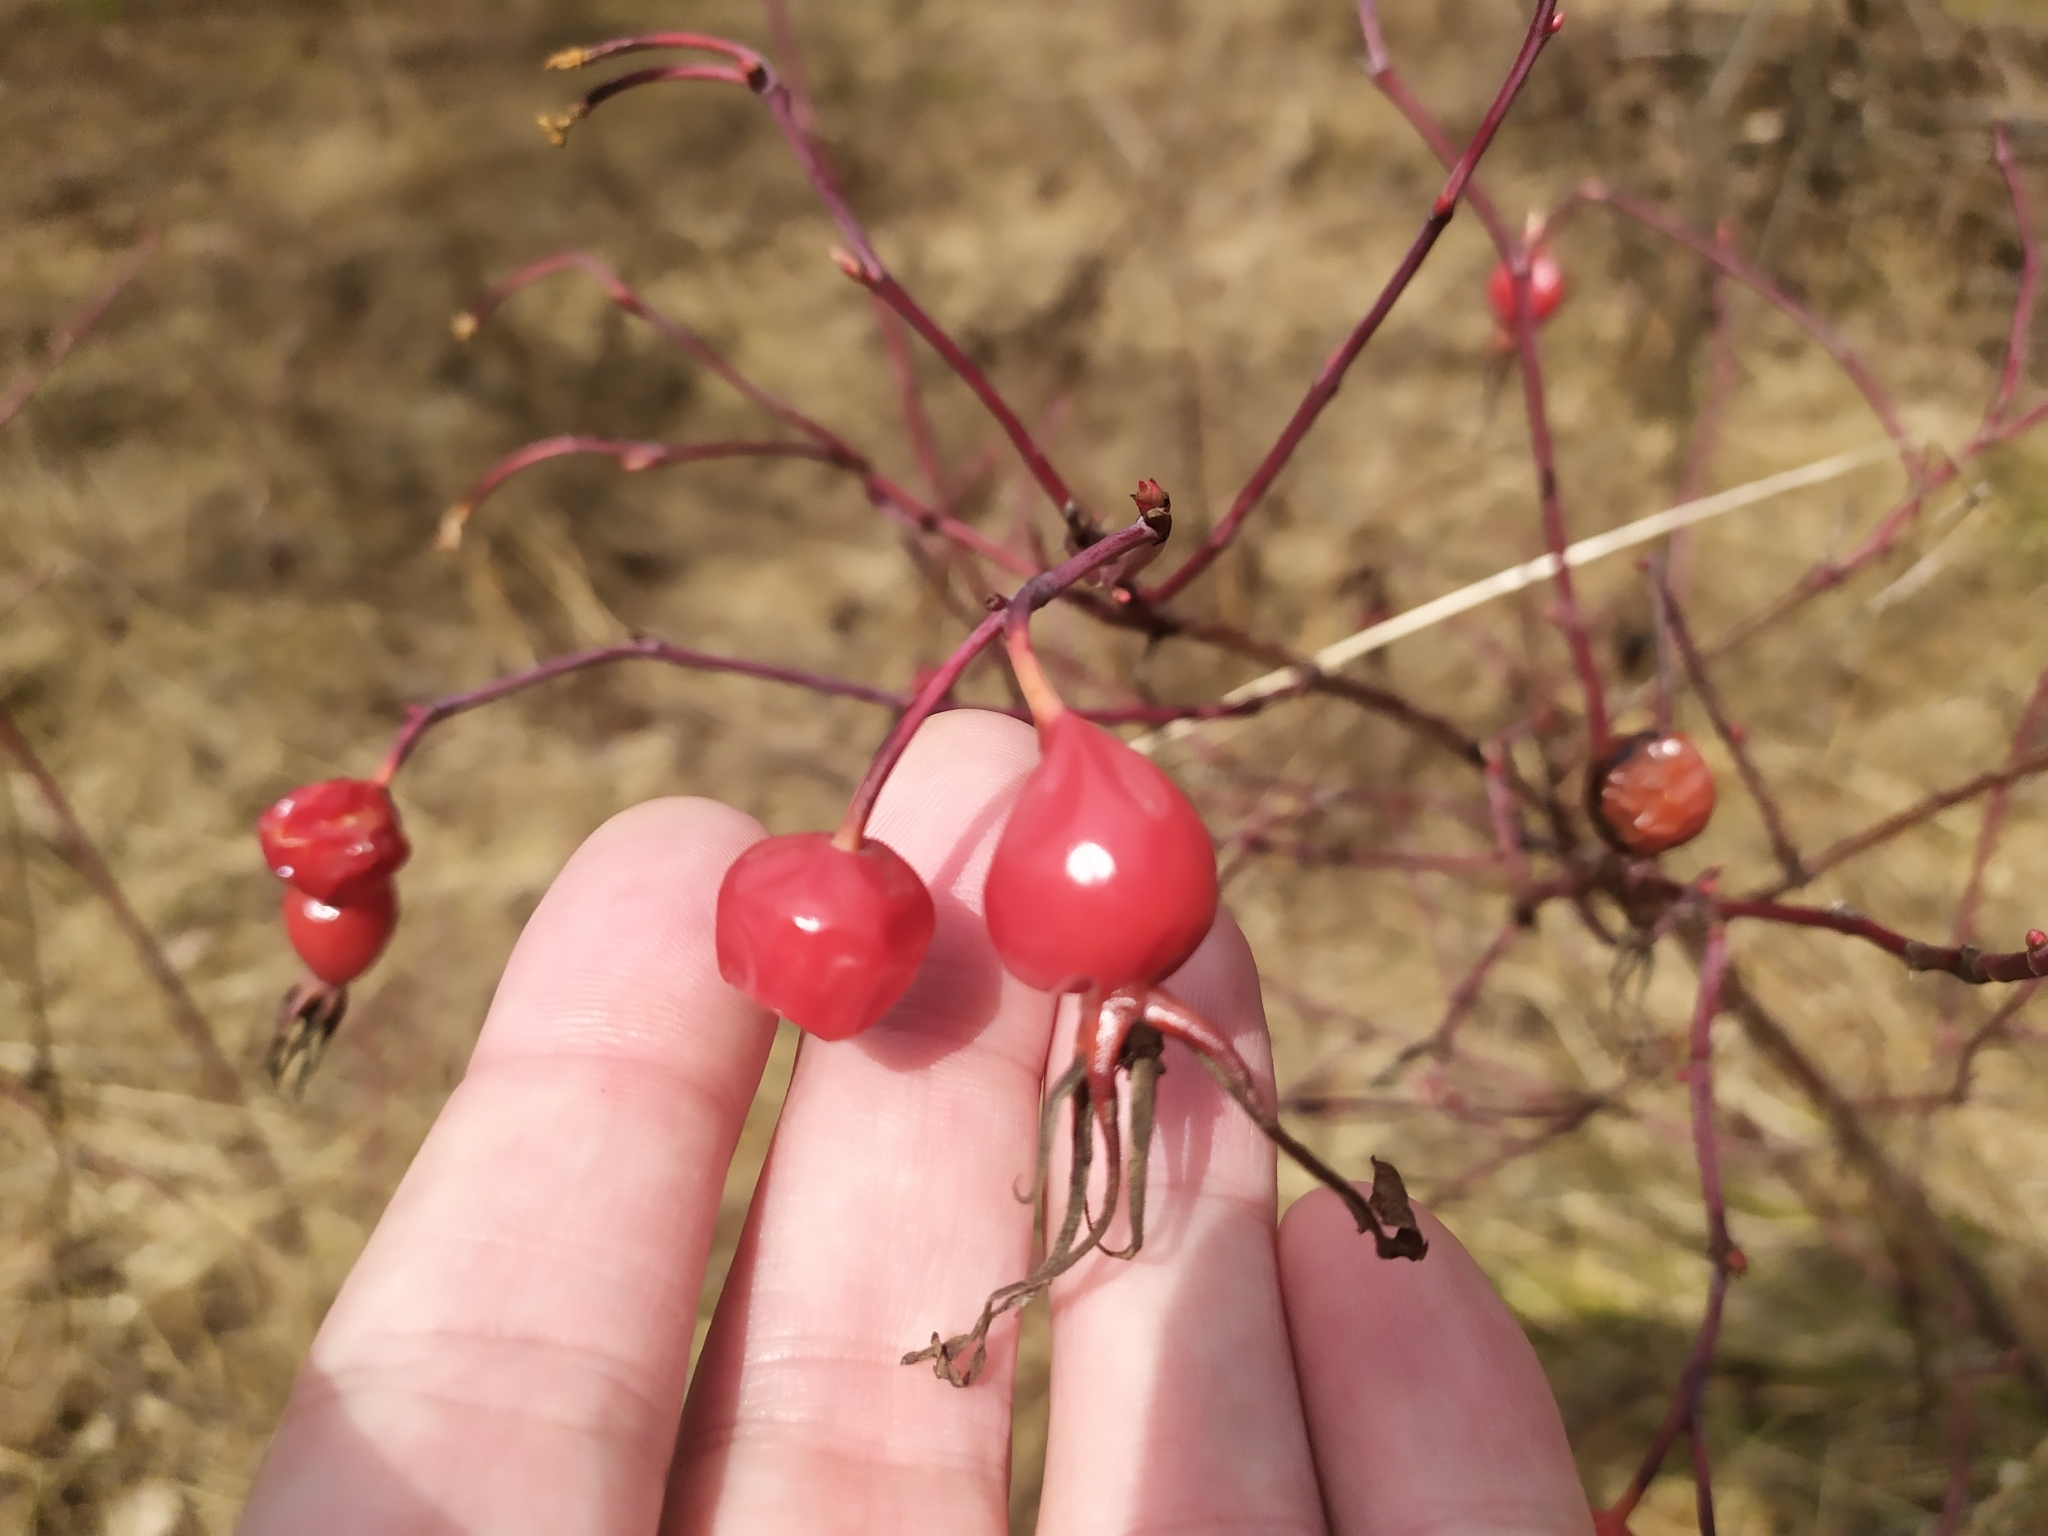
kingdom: Plantae
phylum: Tracheophyta
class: Magnoliopsida
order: Rosales
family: Rosaceae
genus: Rosa
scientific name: Rosa
